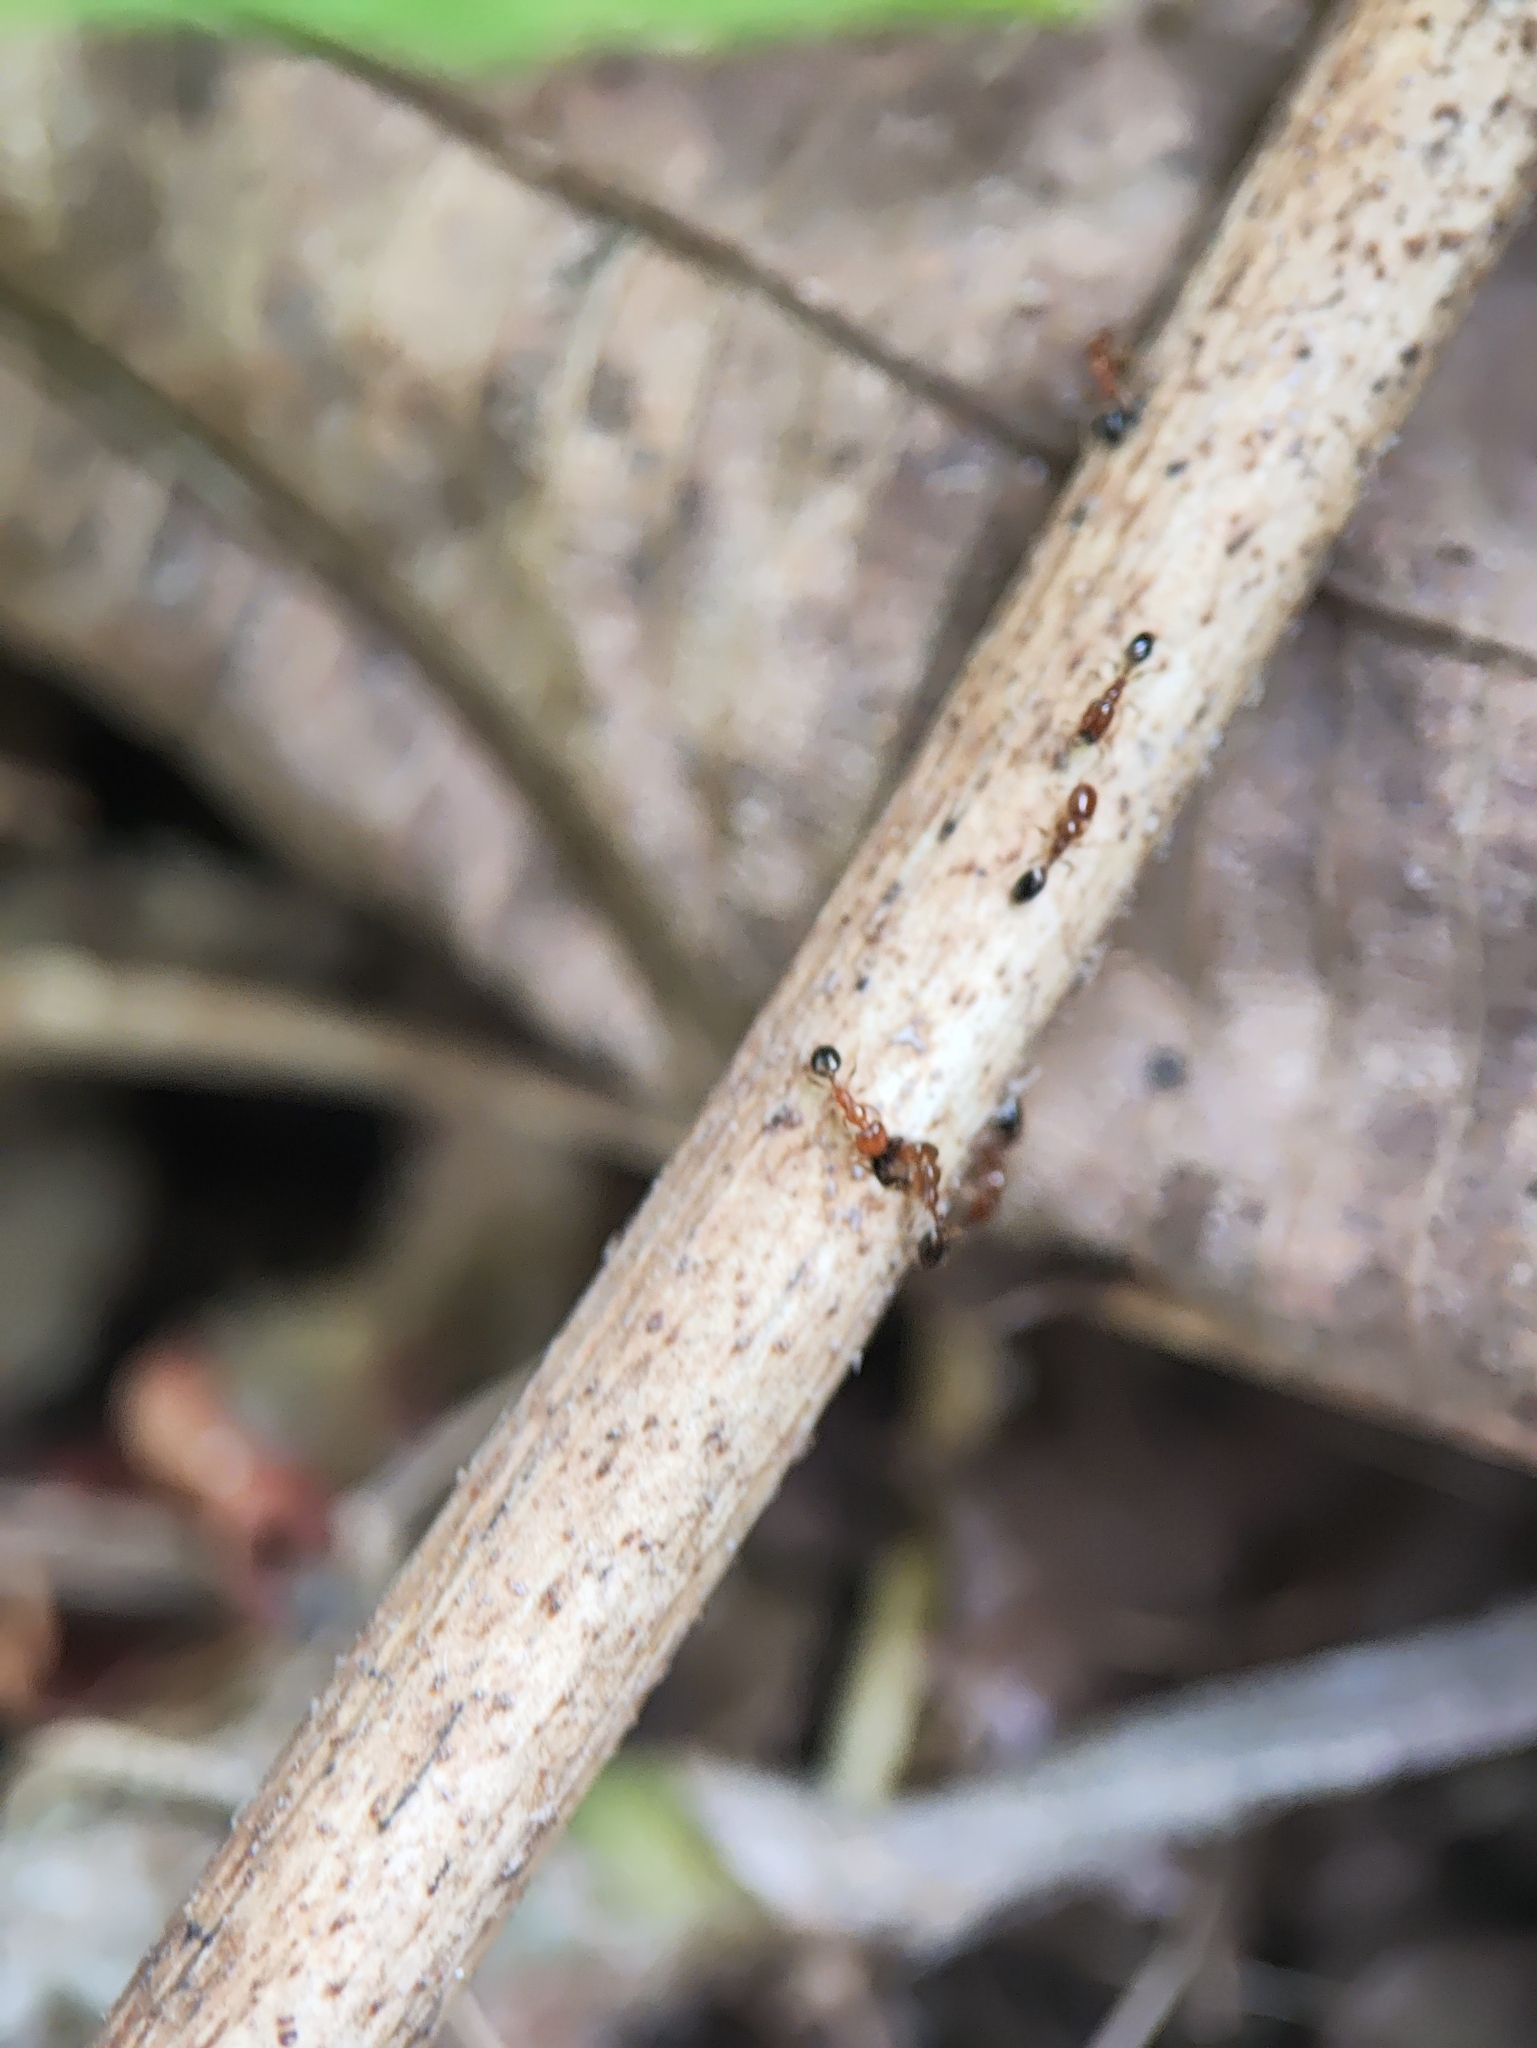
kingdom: Animalia
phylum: Arthropoda
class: Insecta
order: Hymenoptera
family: Formicidae
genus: Monomorium
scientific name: Monomorium destructor
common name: Destructive trailing ant
